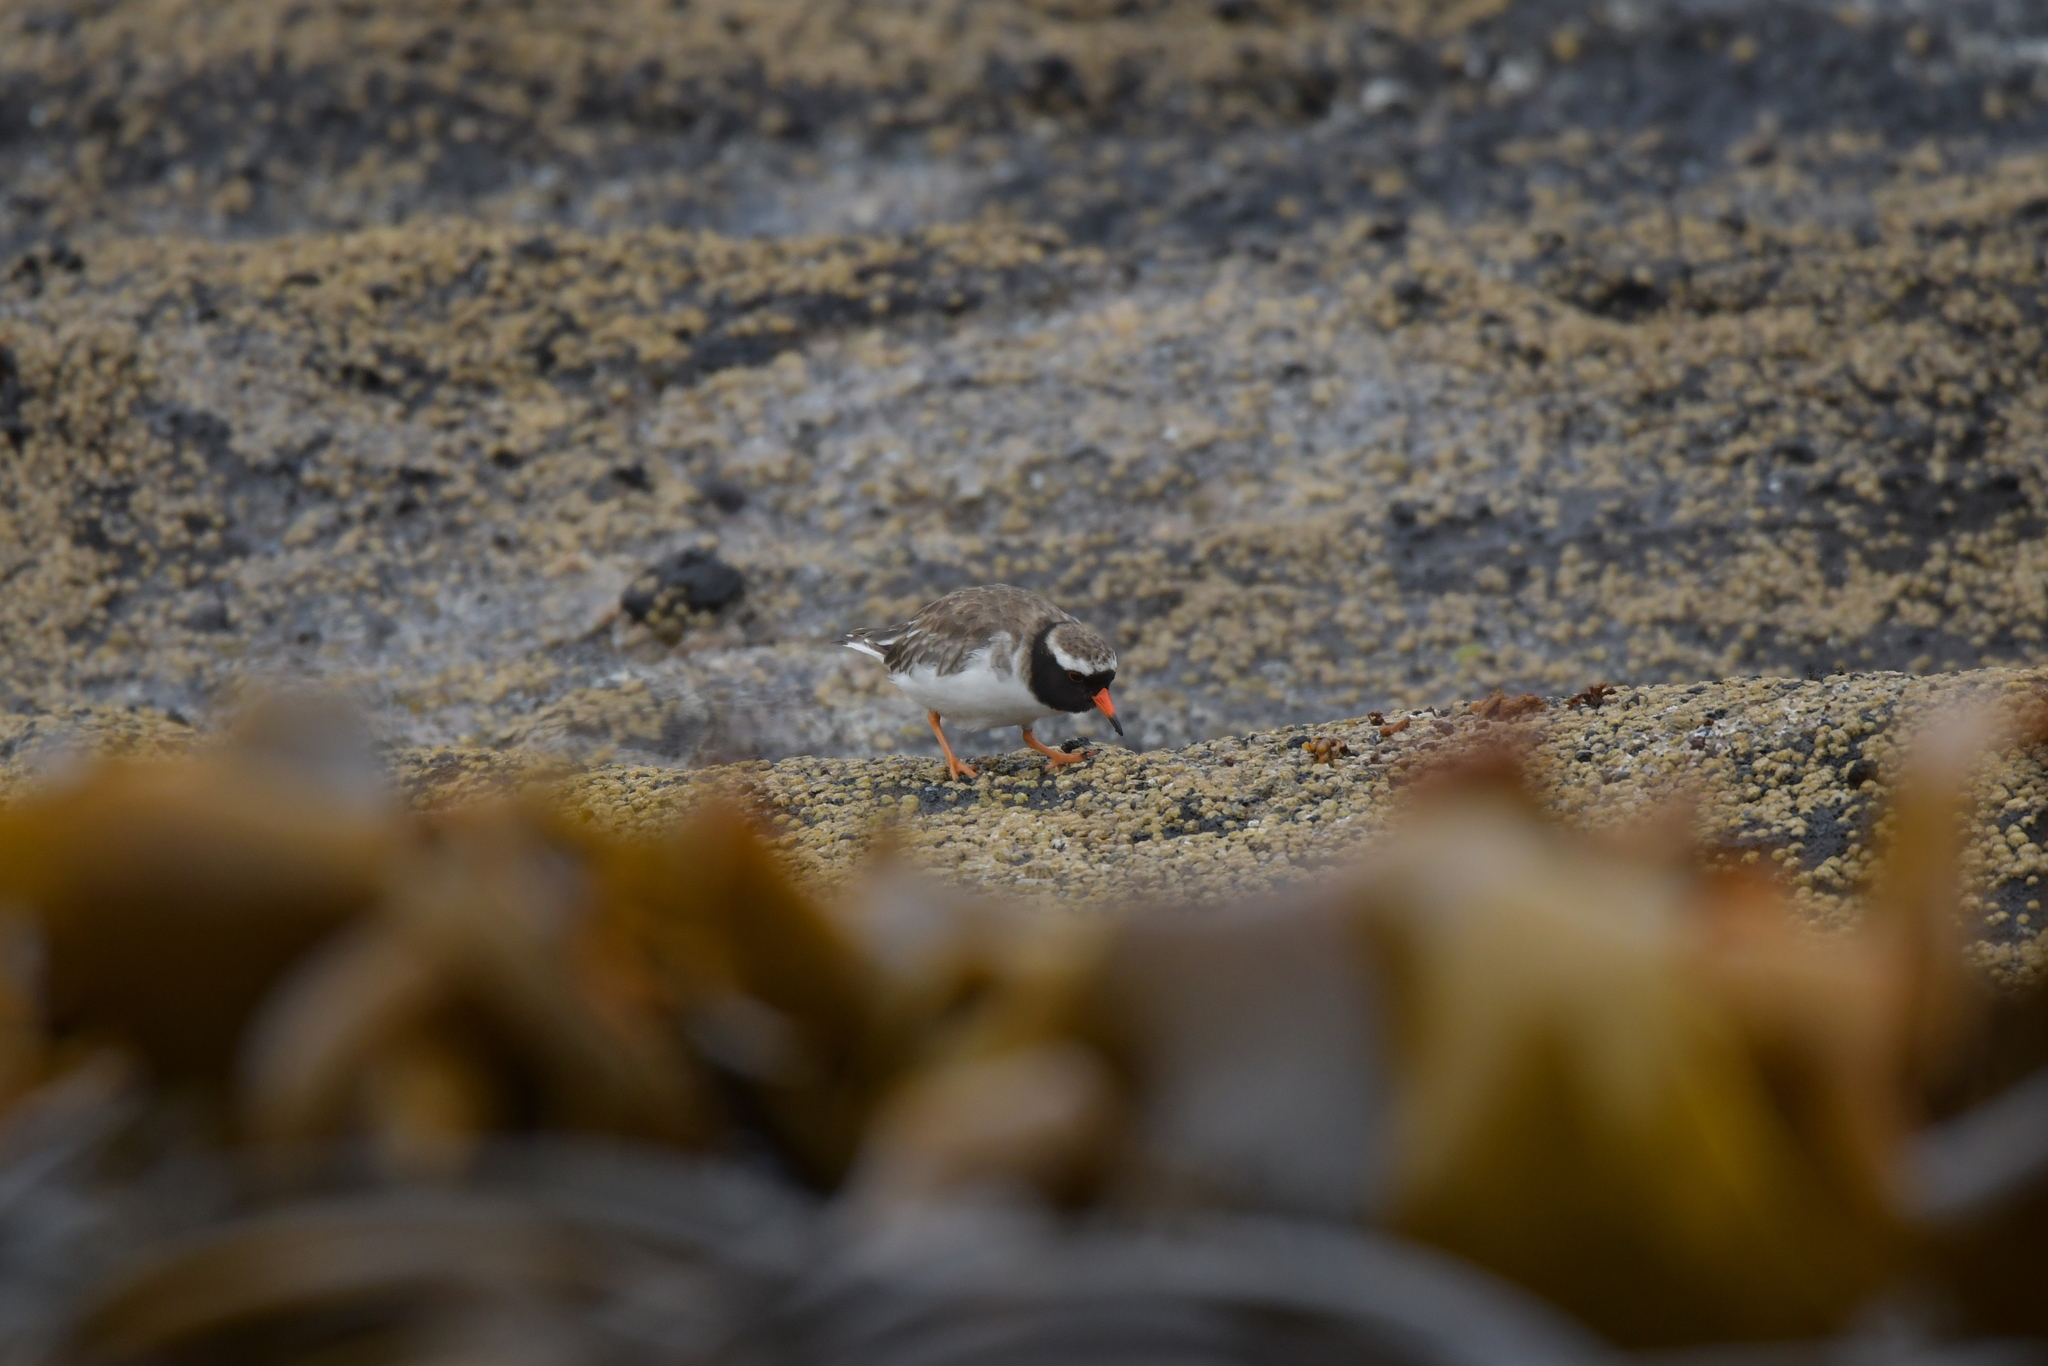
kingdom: Animalia
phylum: Chordata
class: Aves
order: Charadriiformes
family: Charadriidae
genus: Thinornis
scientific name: Thinornis novaeseelandiae
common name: Shore dotterel
